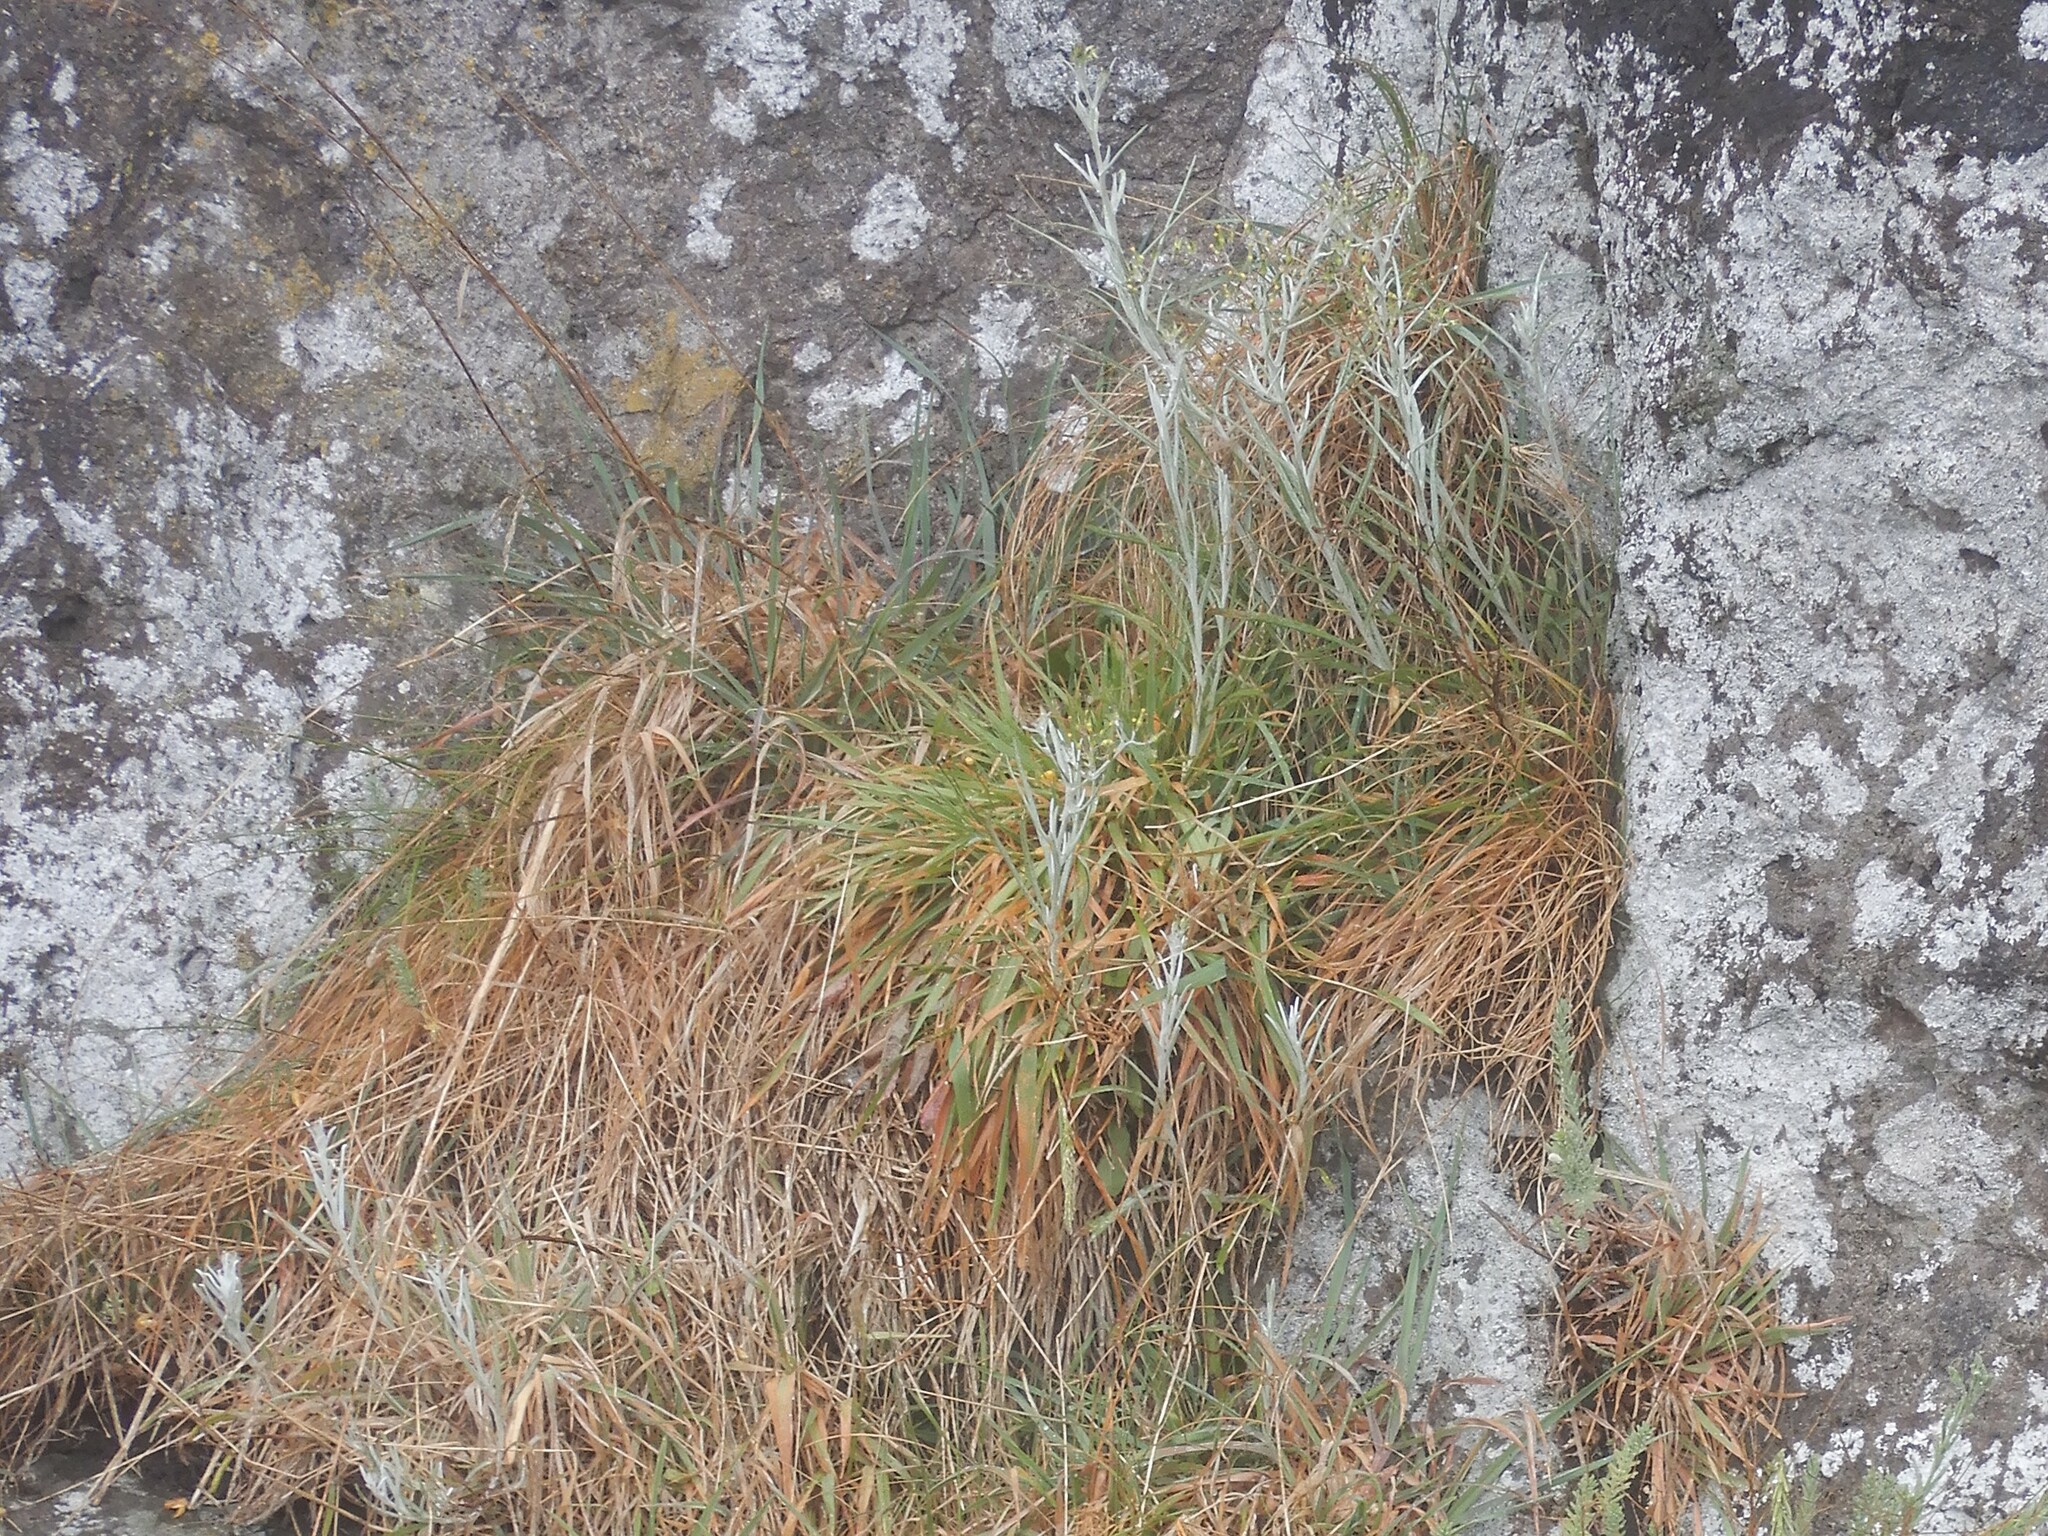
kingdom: Plantae
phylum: Tracheophyta
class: Magnoliopsida
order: Asterales
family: Asteraceae
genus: Senecio
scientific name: Senecio quadridentatus
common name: Cotton fireweed
